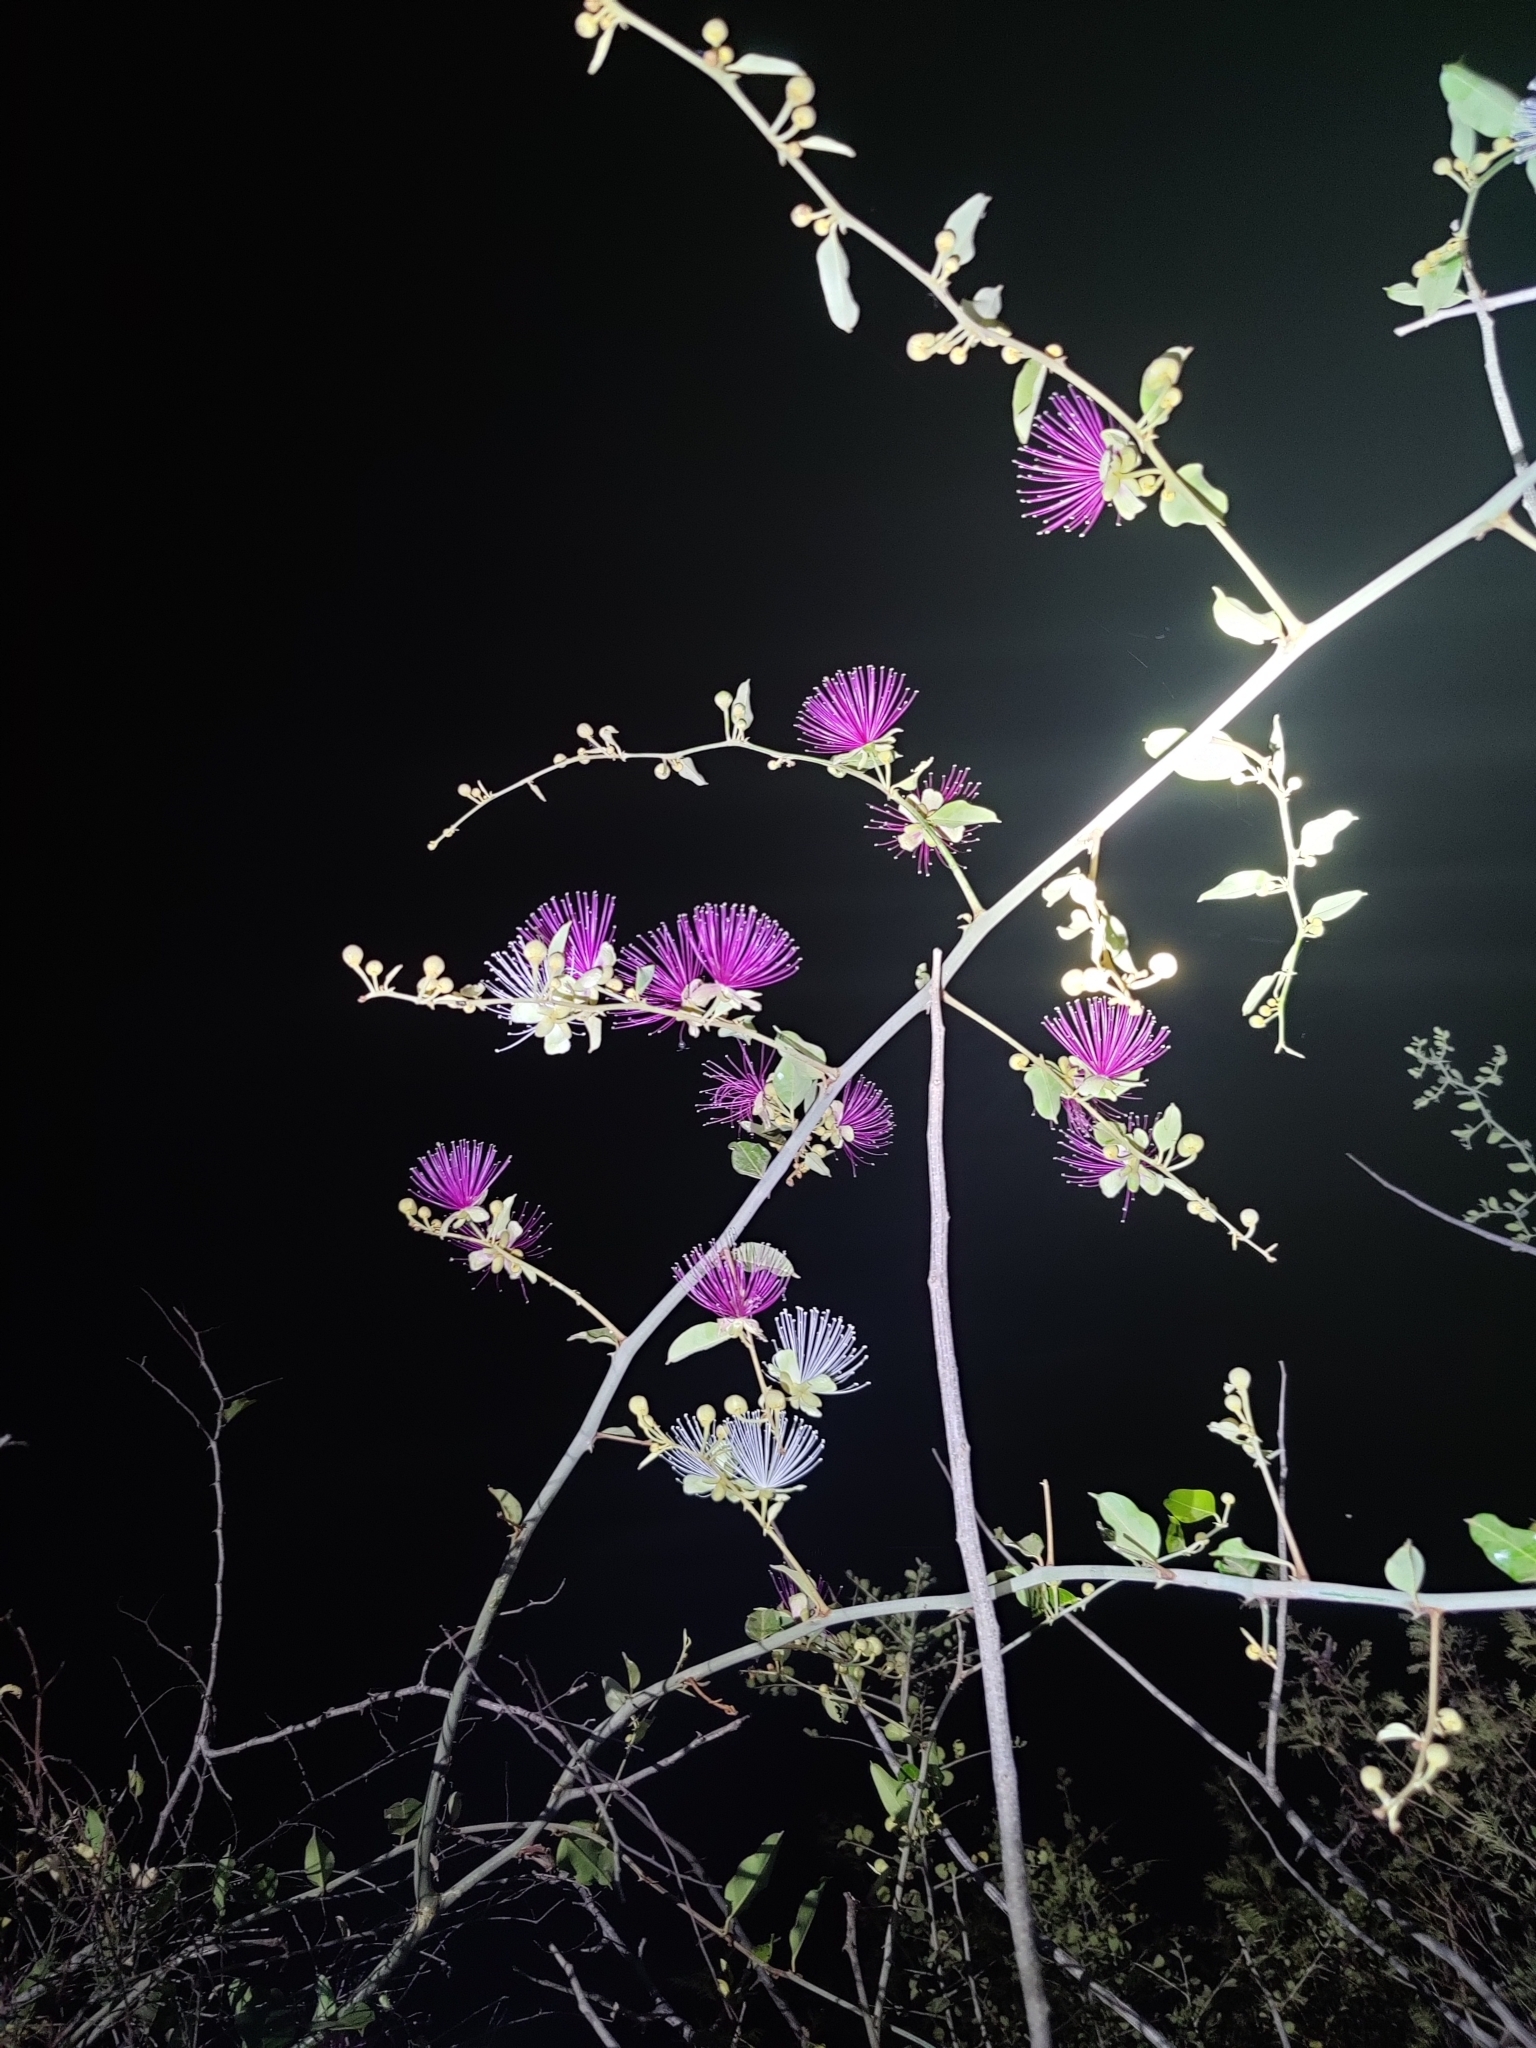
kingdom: Plantae
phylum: Tracheophyta
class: Magnoliopsida
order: Brassicales
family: Capparaceae
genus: Capparis
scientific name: Capparis zeylanica
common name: Ceylon caper
